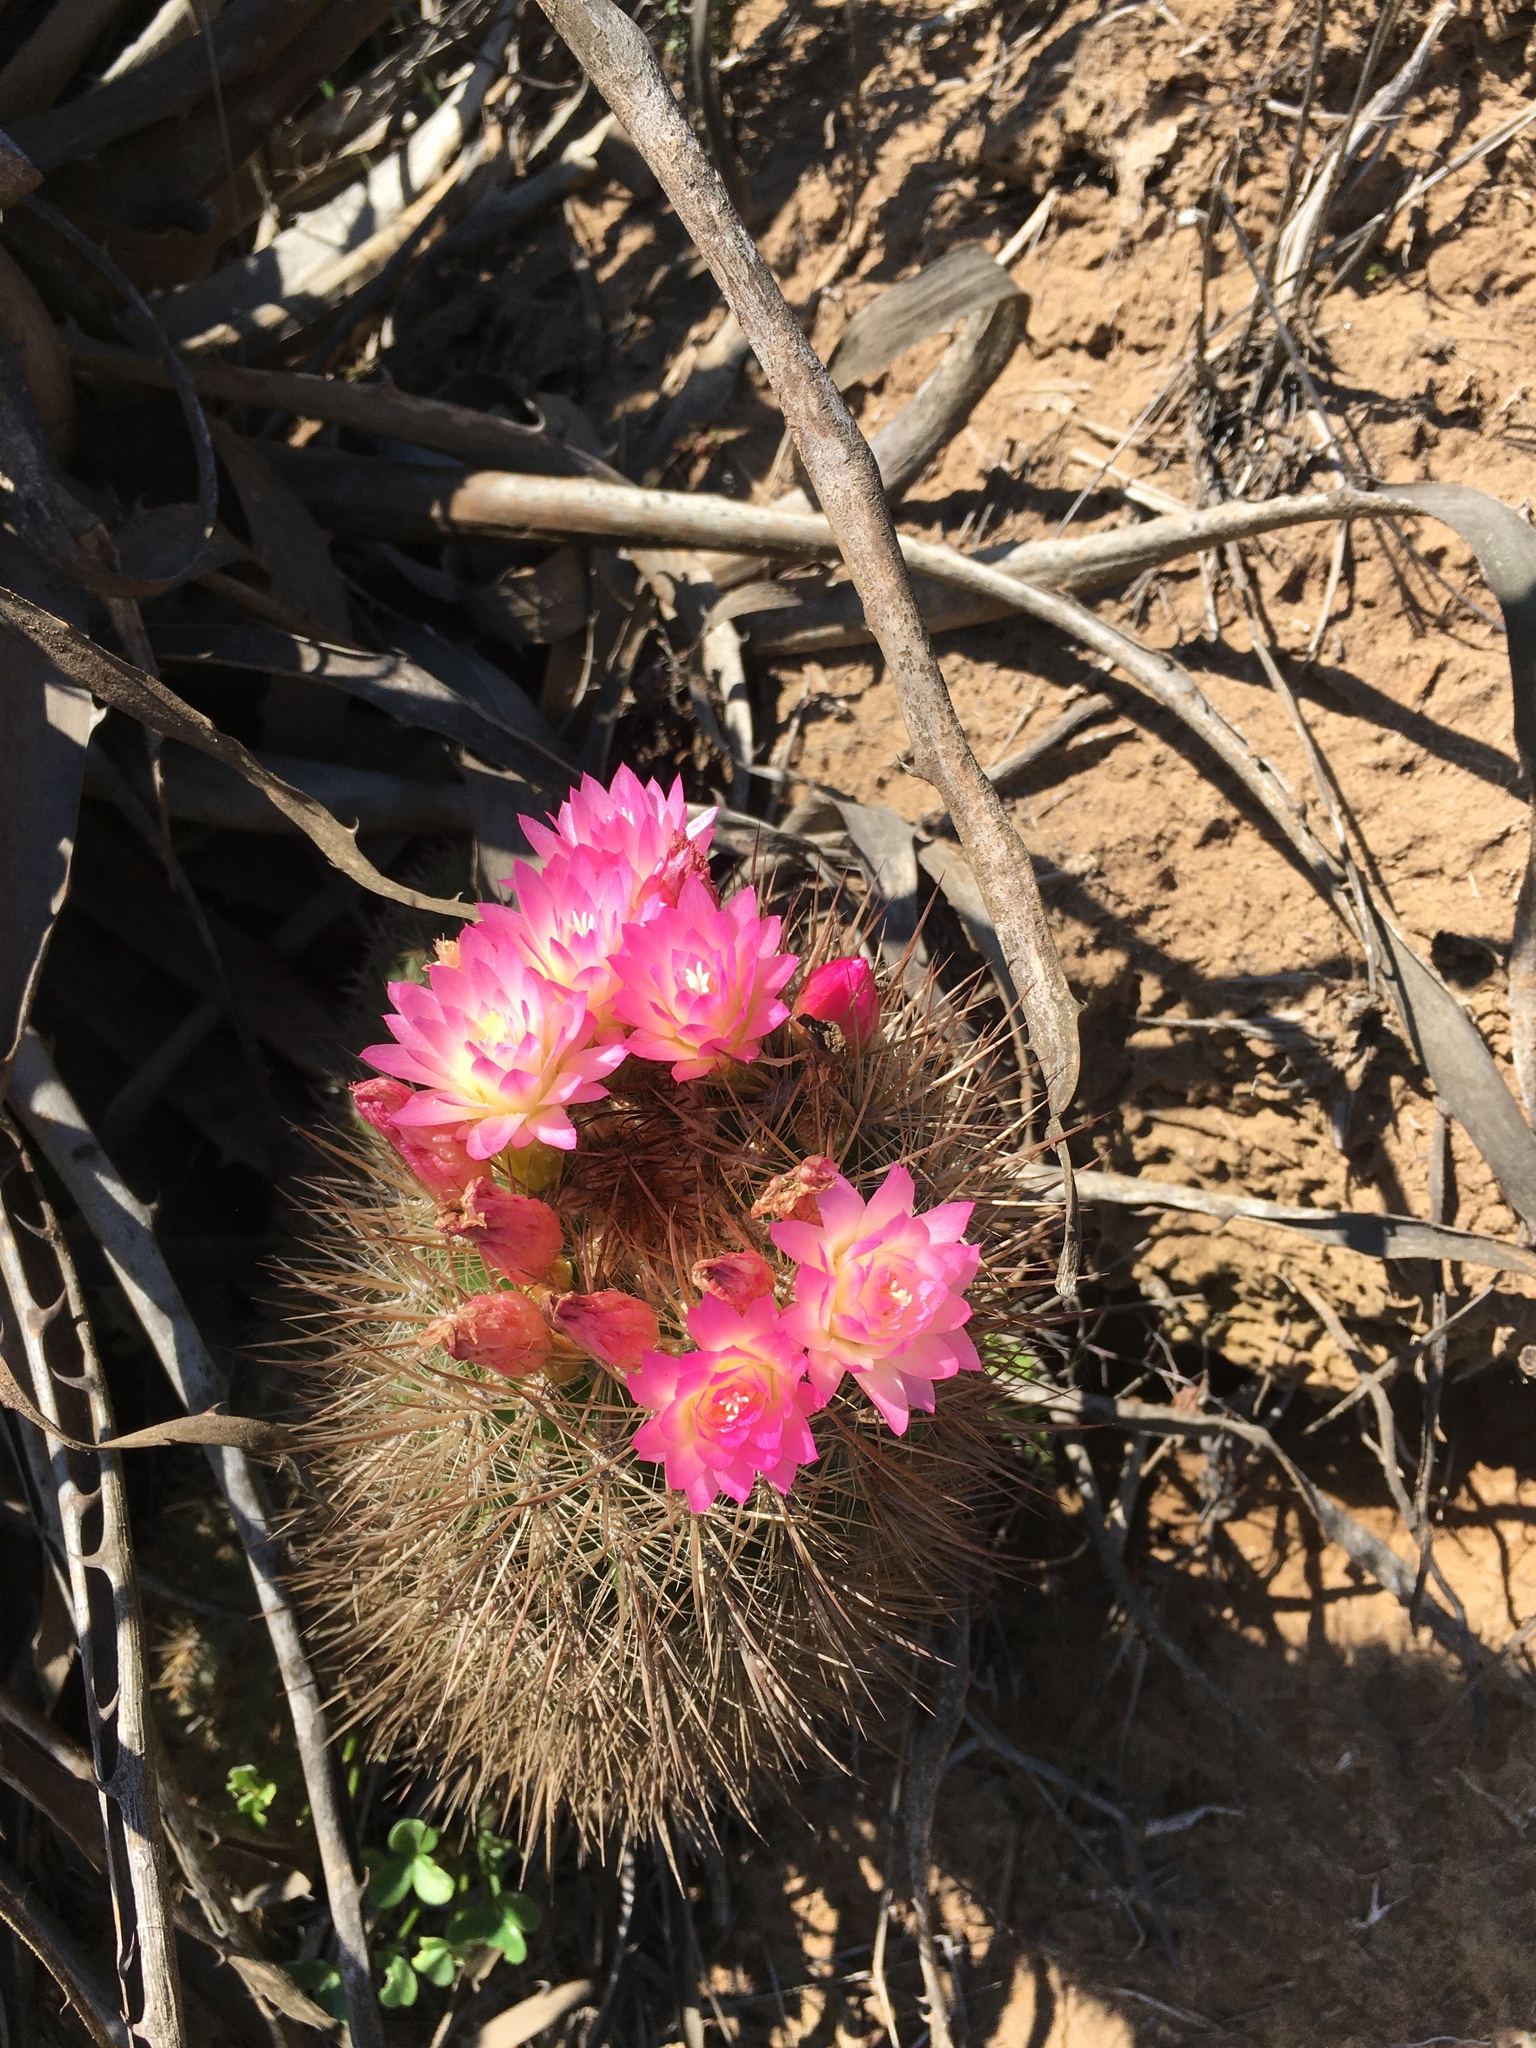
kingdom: Plantae
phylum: Tracheophyta
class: Magnoliopsida
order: Caryophyllales
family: Cactaceae
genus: Eriosyce
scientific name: Eriosyce subgibbosa
